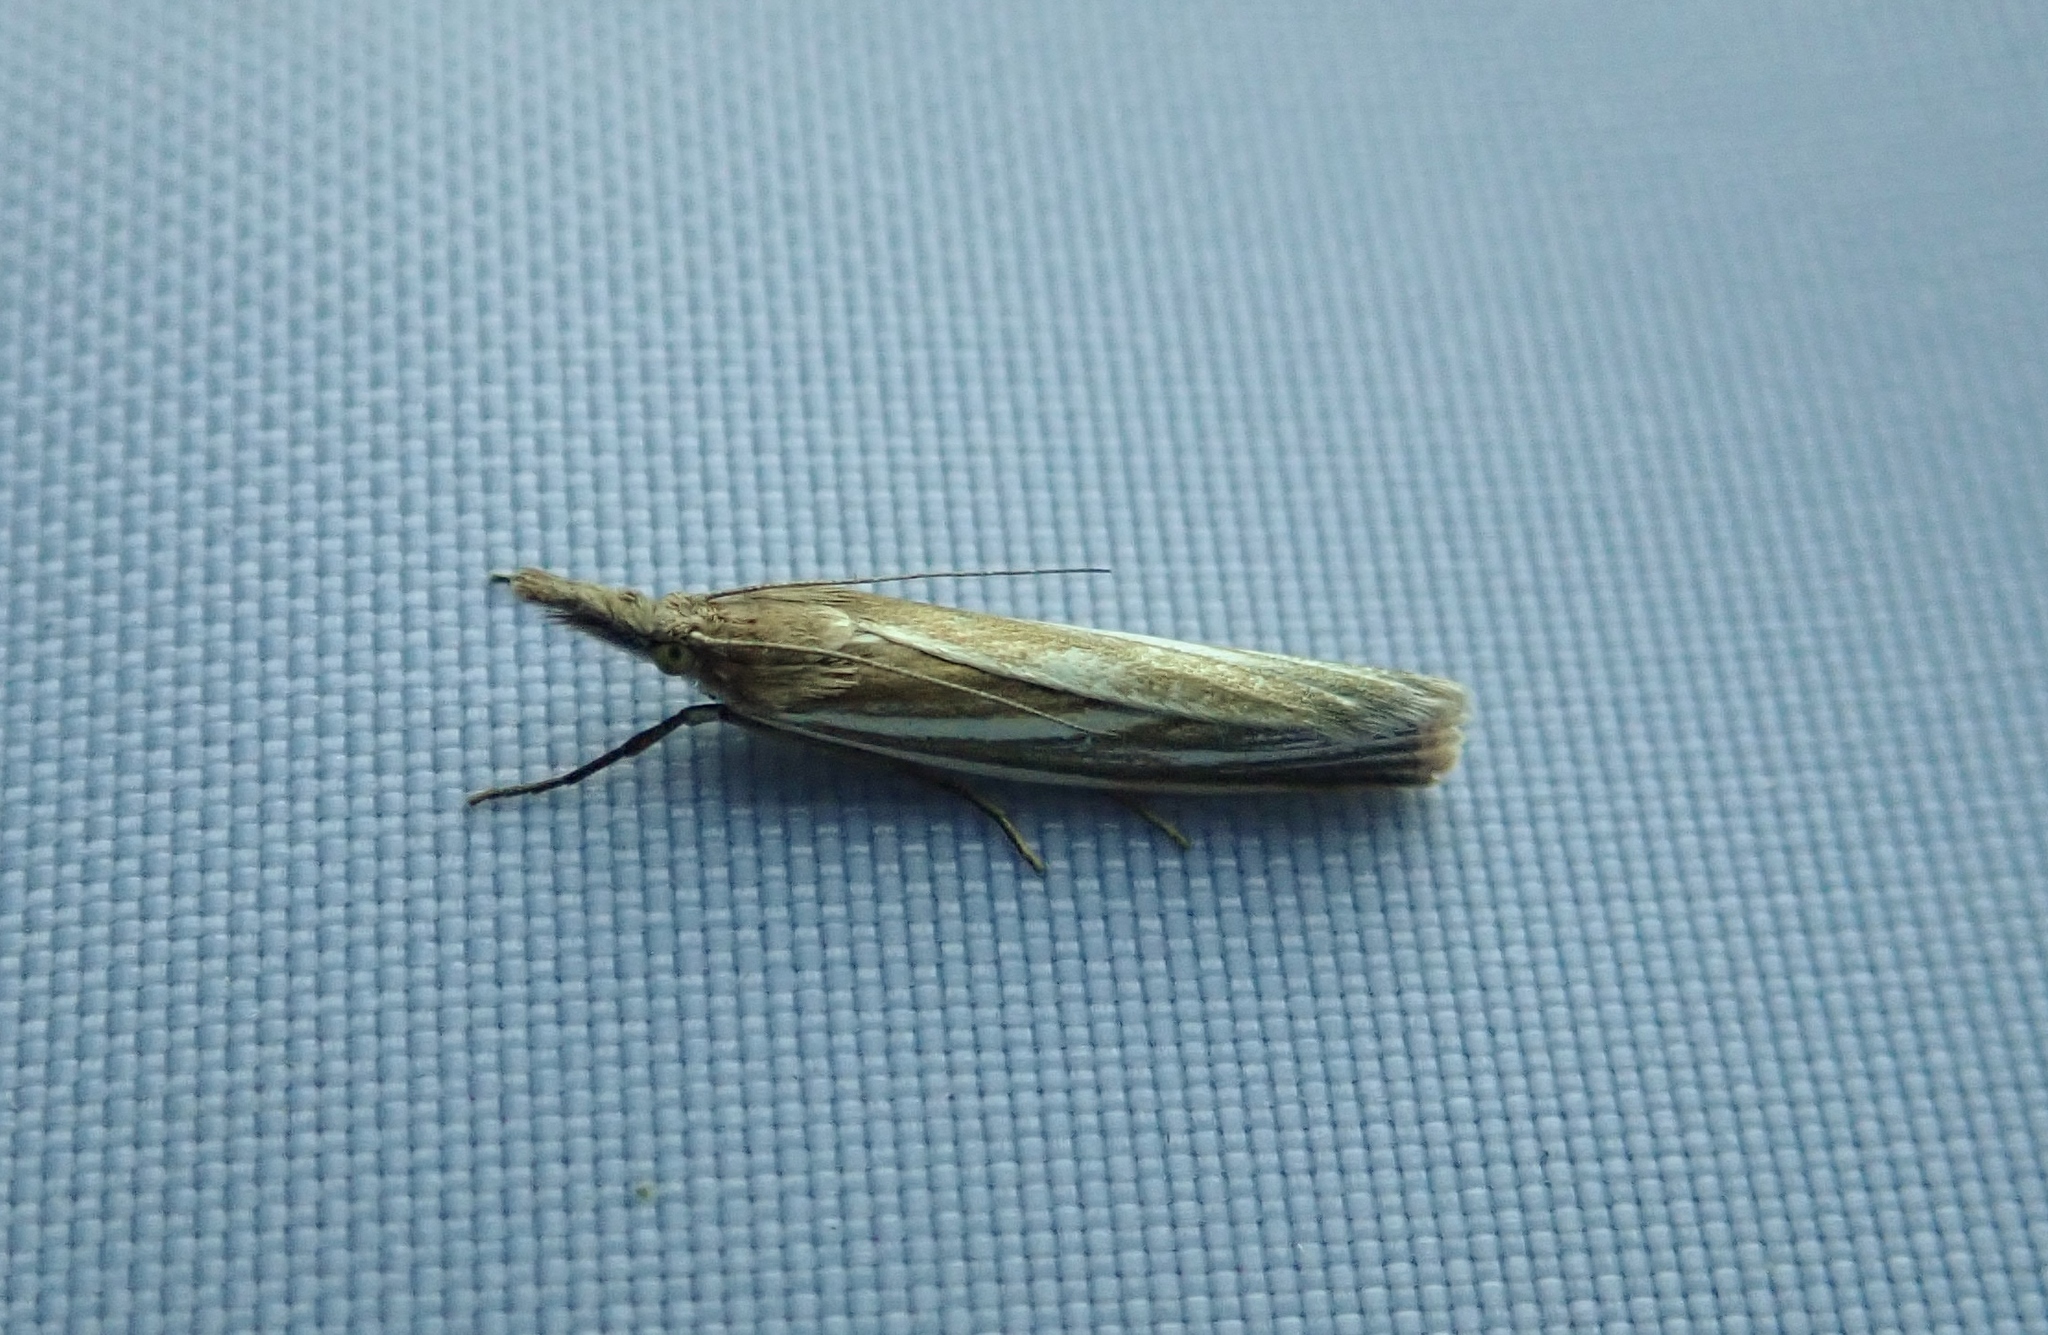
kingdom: Animalia
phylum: Arthropoda
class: Insecta
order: Lepidoptera
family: Crambidae
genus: Crambus
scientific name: Crambus perlellus
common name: Yellow satin veneer
